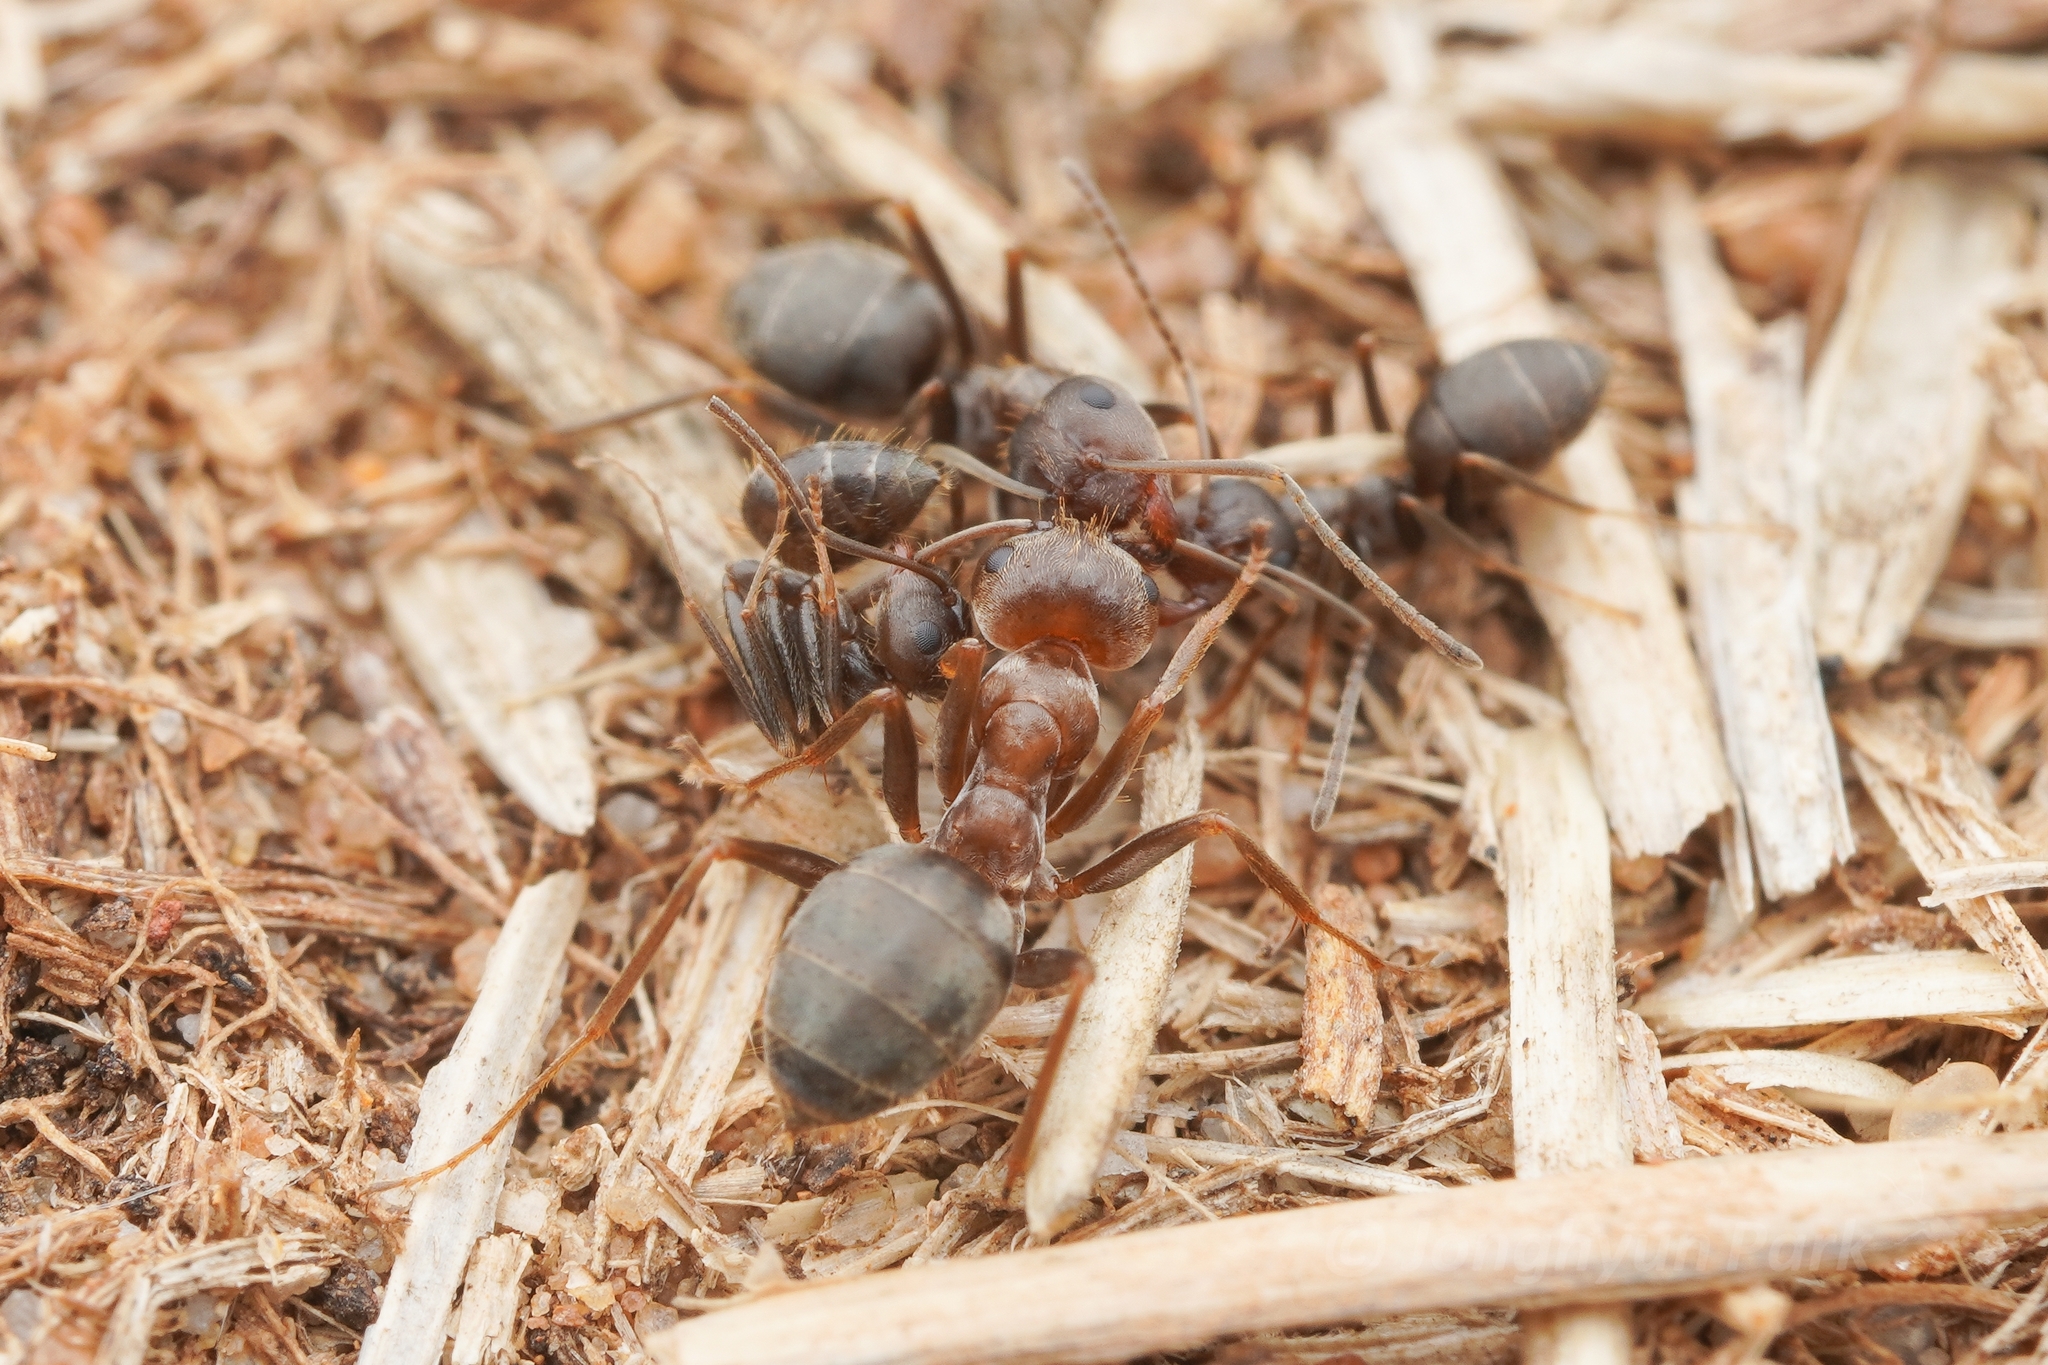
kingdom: Animalia
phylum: Arthropoda
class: Insecta
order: Hymenoptera
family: Formicidae
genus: Anoplolepis
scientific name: Anoplolepis fallax
